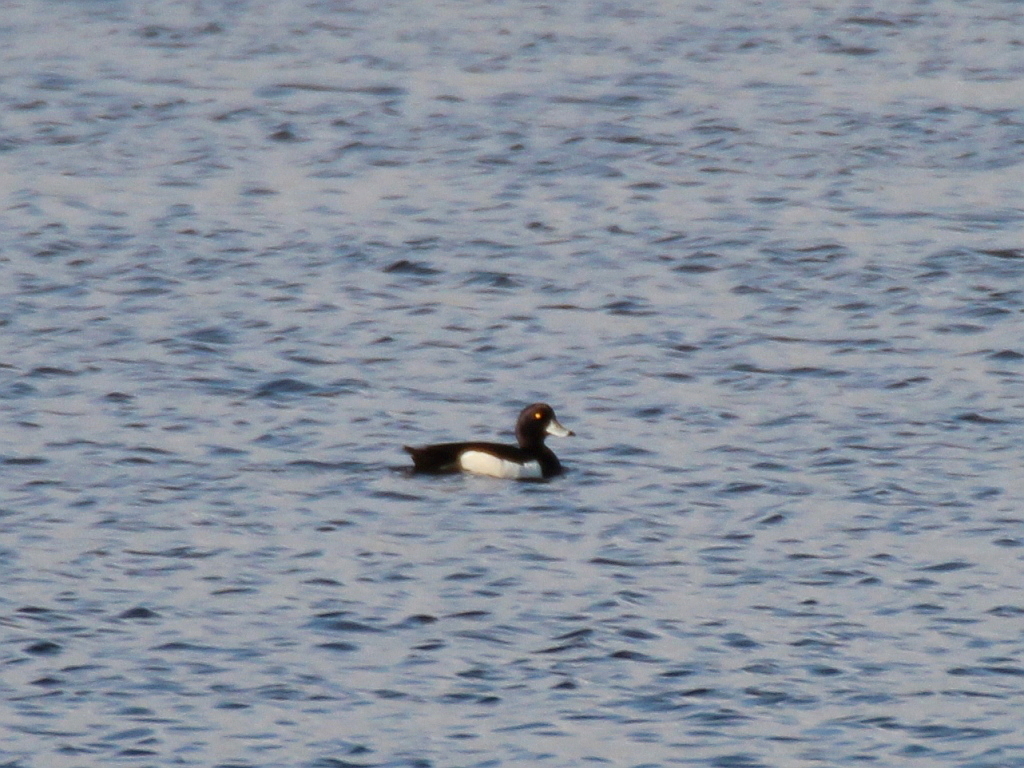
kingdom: Animalia
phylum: Chordata
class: Aves
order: Anseriformes
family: Anatidae
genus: Aythya
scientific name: Aythya fuligula
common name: Tufted duck
